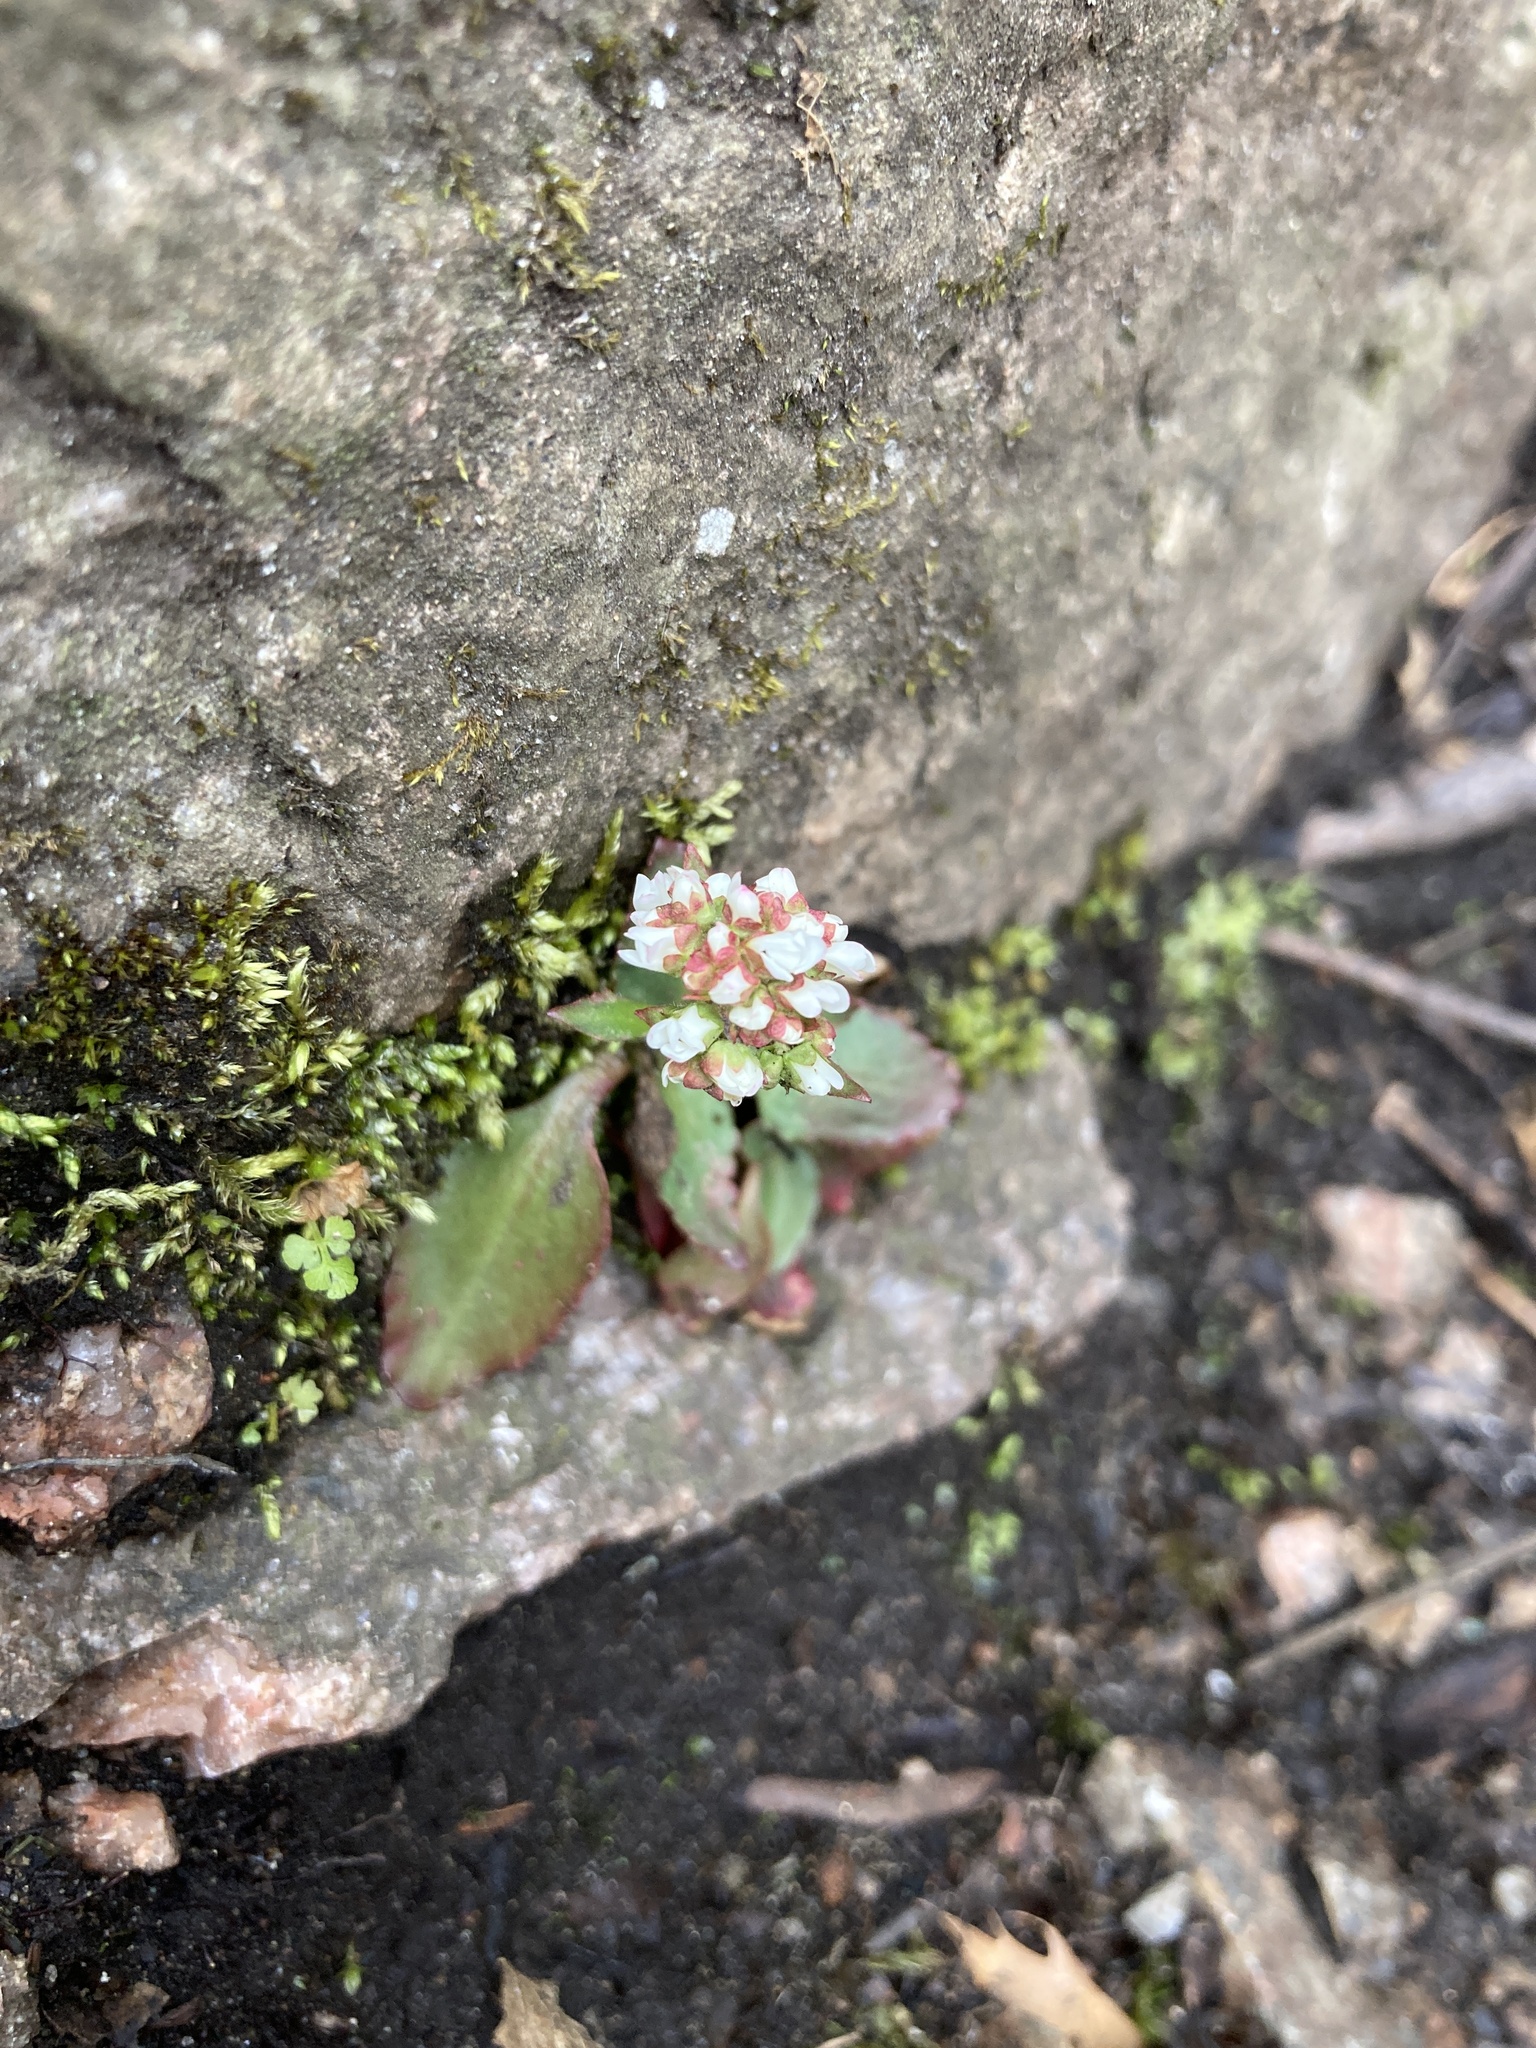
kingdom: Plantae
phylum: Tracheophyta
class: Magnoliopsida
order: Saxifragales
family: Saxifragaceae
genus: Micranthes
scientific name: Micranthes virginiensis
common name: Early saxifrage
